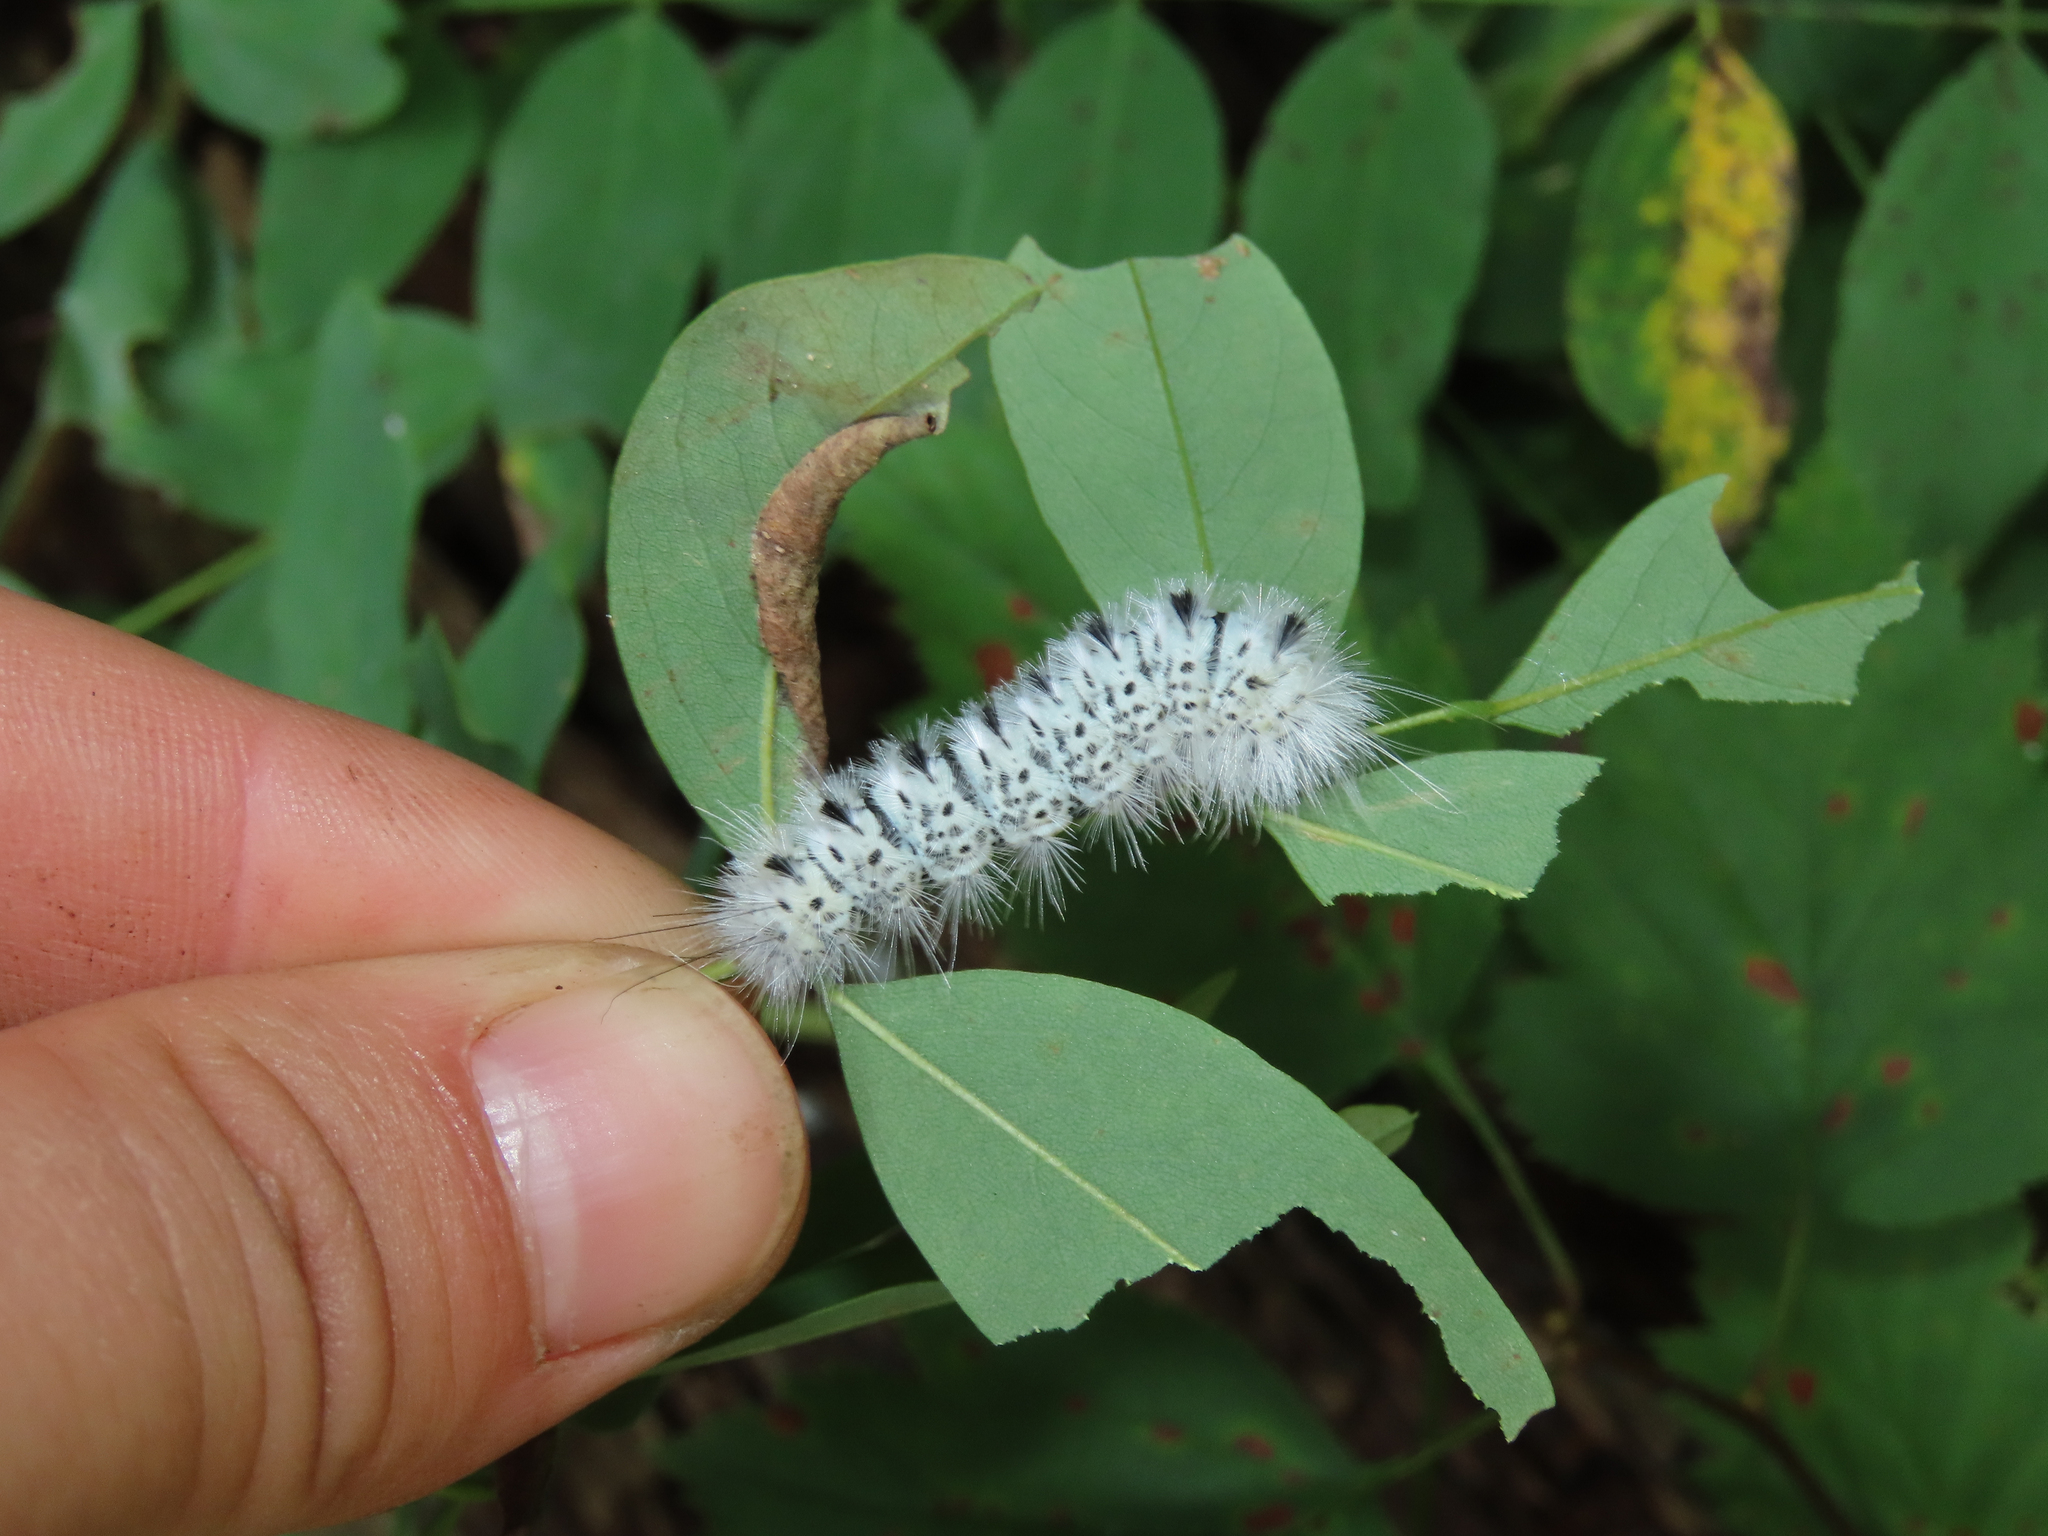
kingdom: Animalia
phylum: Arthropoda
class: Insecta
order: Lepidoptera
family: Erebidae
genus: Lophocampa
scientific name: Lophocampa caryae
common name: Hickory tussock moth
